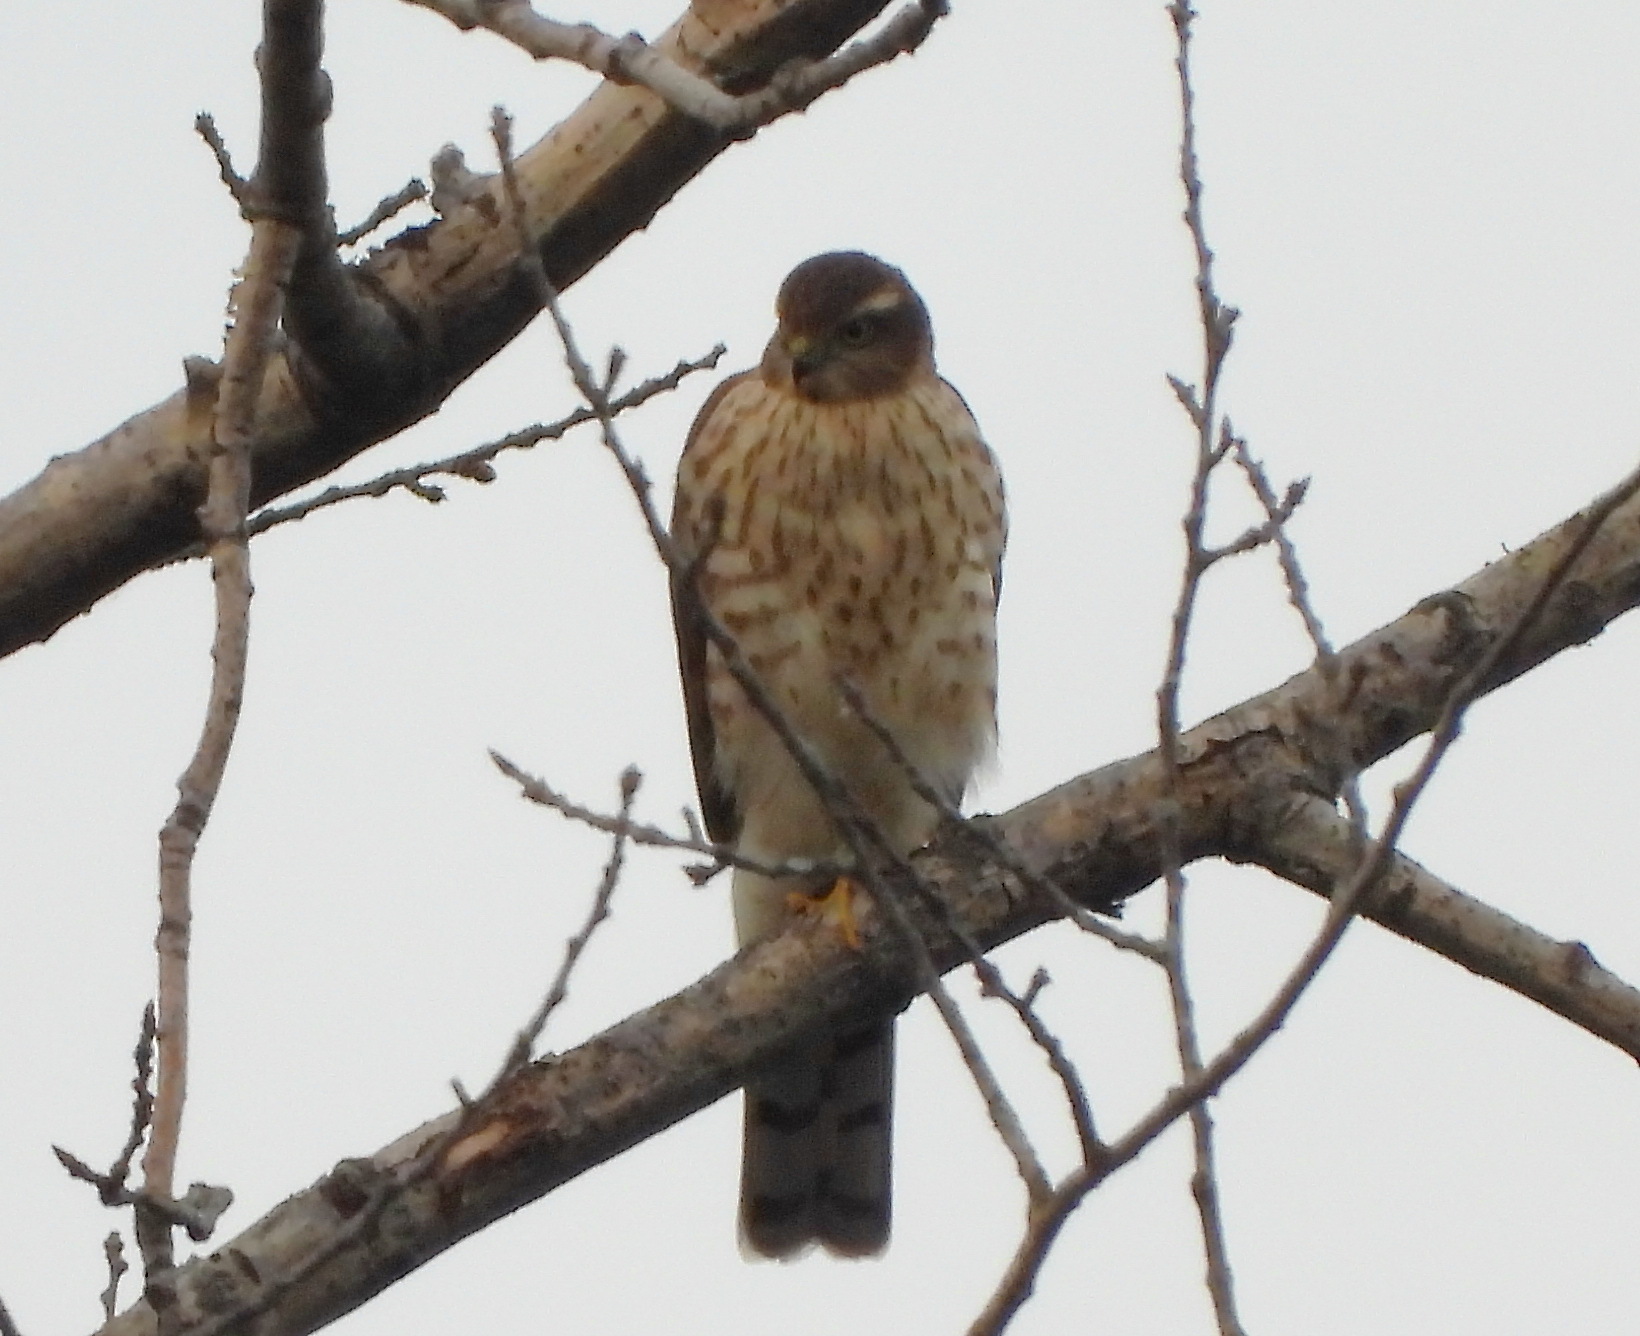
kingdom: Animalia
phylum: Chordata
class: Aves
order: Accipitriformes
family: Accipitridae
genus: Accipiter
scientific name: Accipiter nisus
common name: Eurasian sparrowhawk
